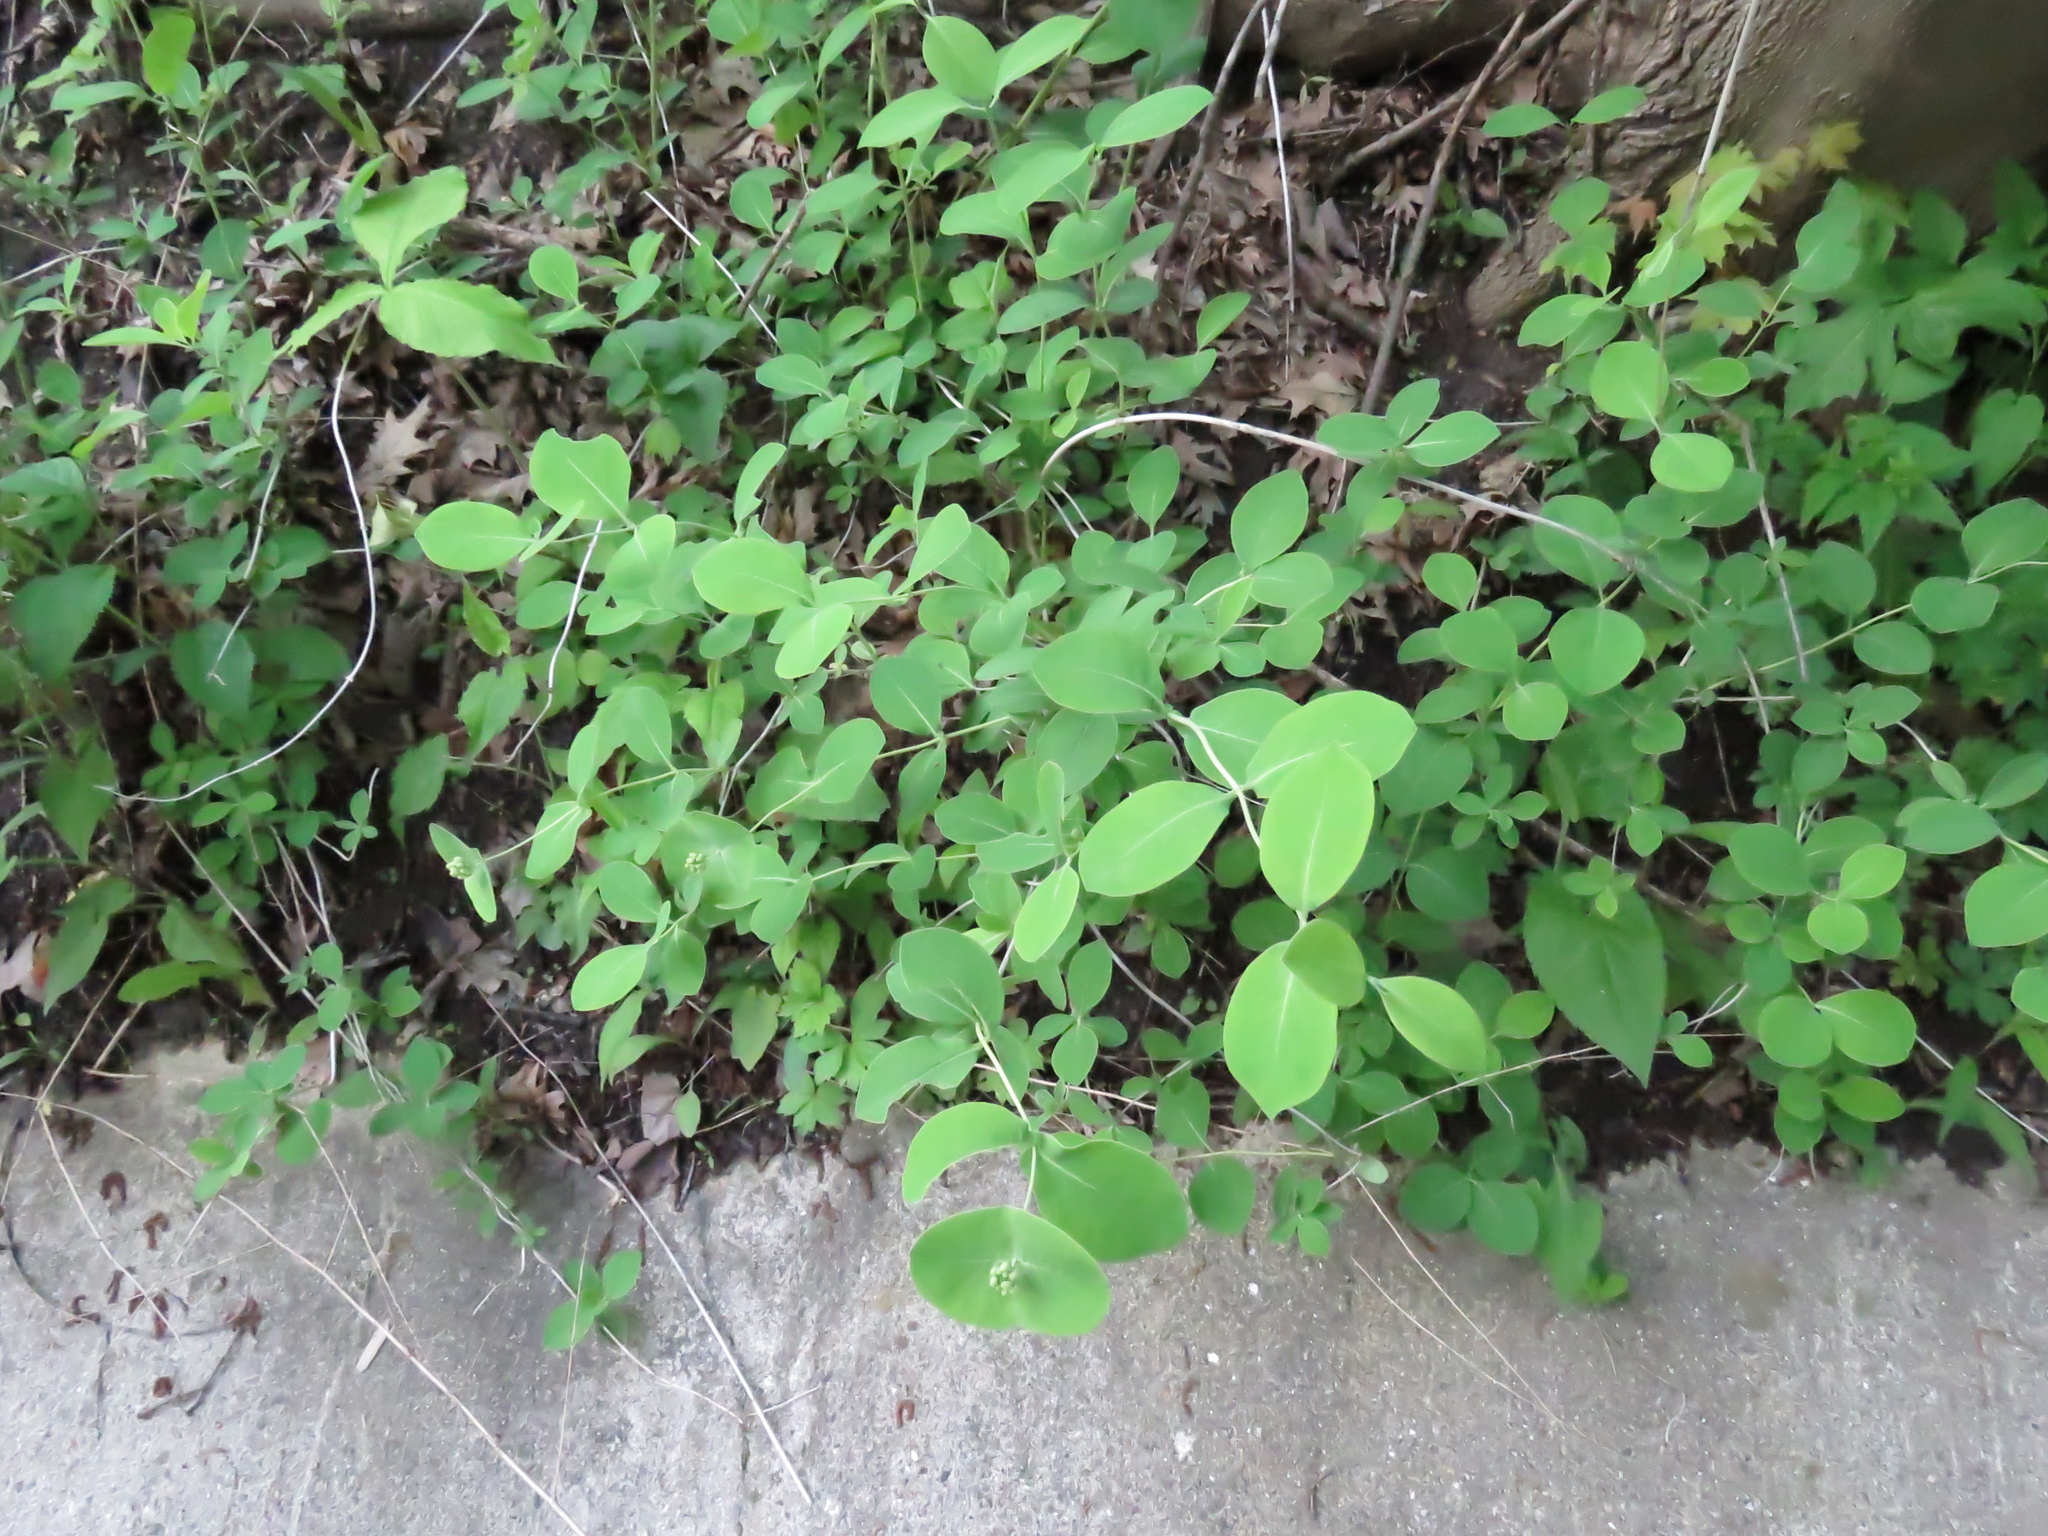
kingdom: Plantae
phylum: Tracheophyta
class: Magnoliopsida
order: Dipsacales
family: Caprifoliaceae
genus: Lonicera
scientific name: Lonicera reticulata
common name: Grape honeysuckle
